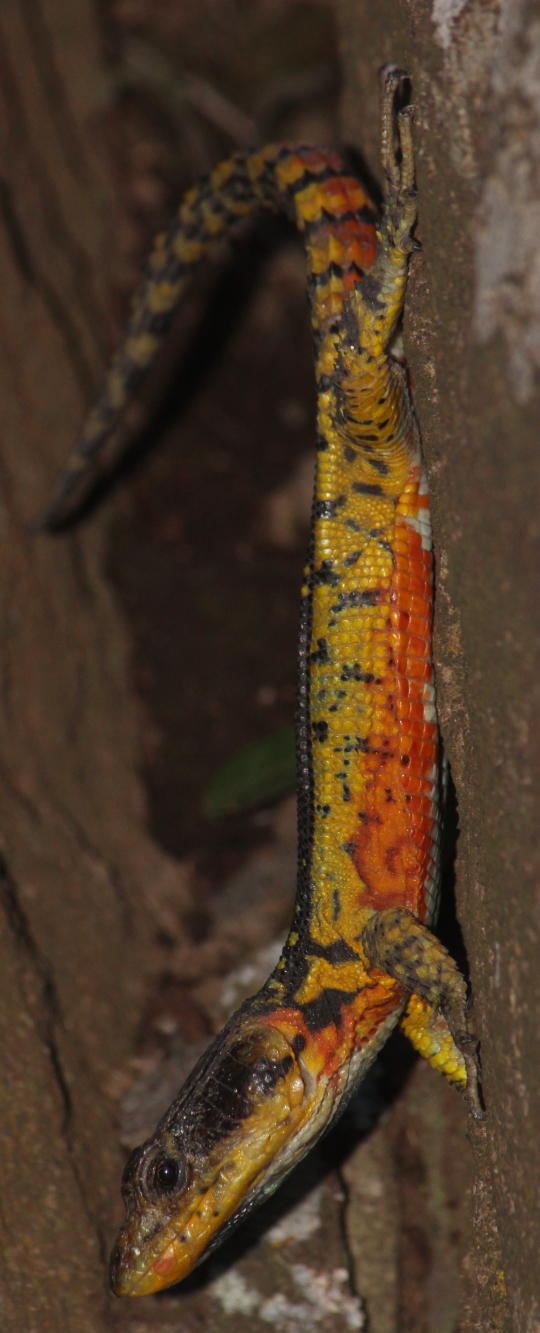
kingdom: Animalia
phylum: Chordata
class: Squamata
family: Cordylidae
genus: Pseudocordylus
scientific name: Pseudocordylus subviridis
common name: Drakensberg crag lizard
